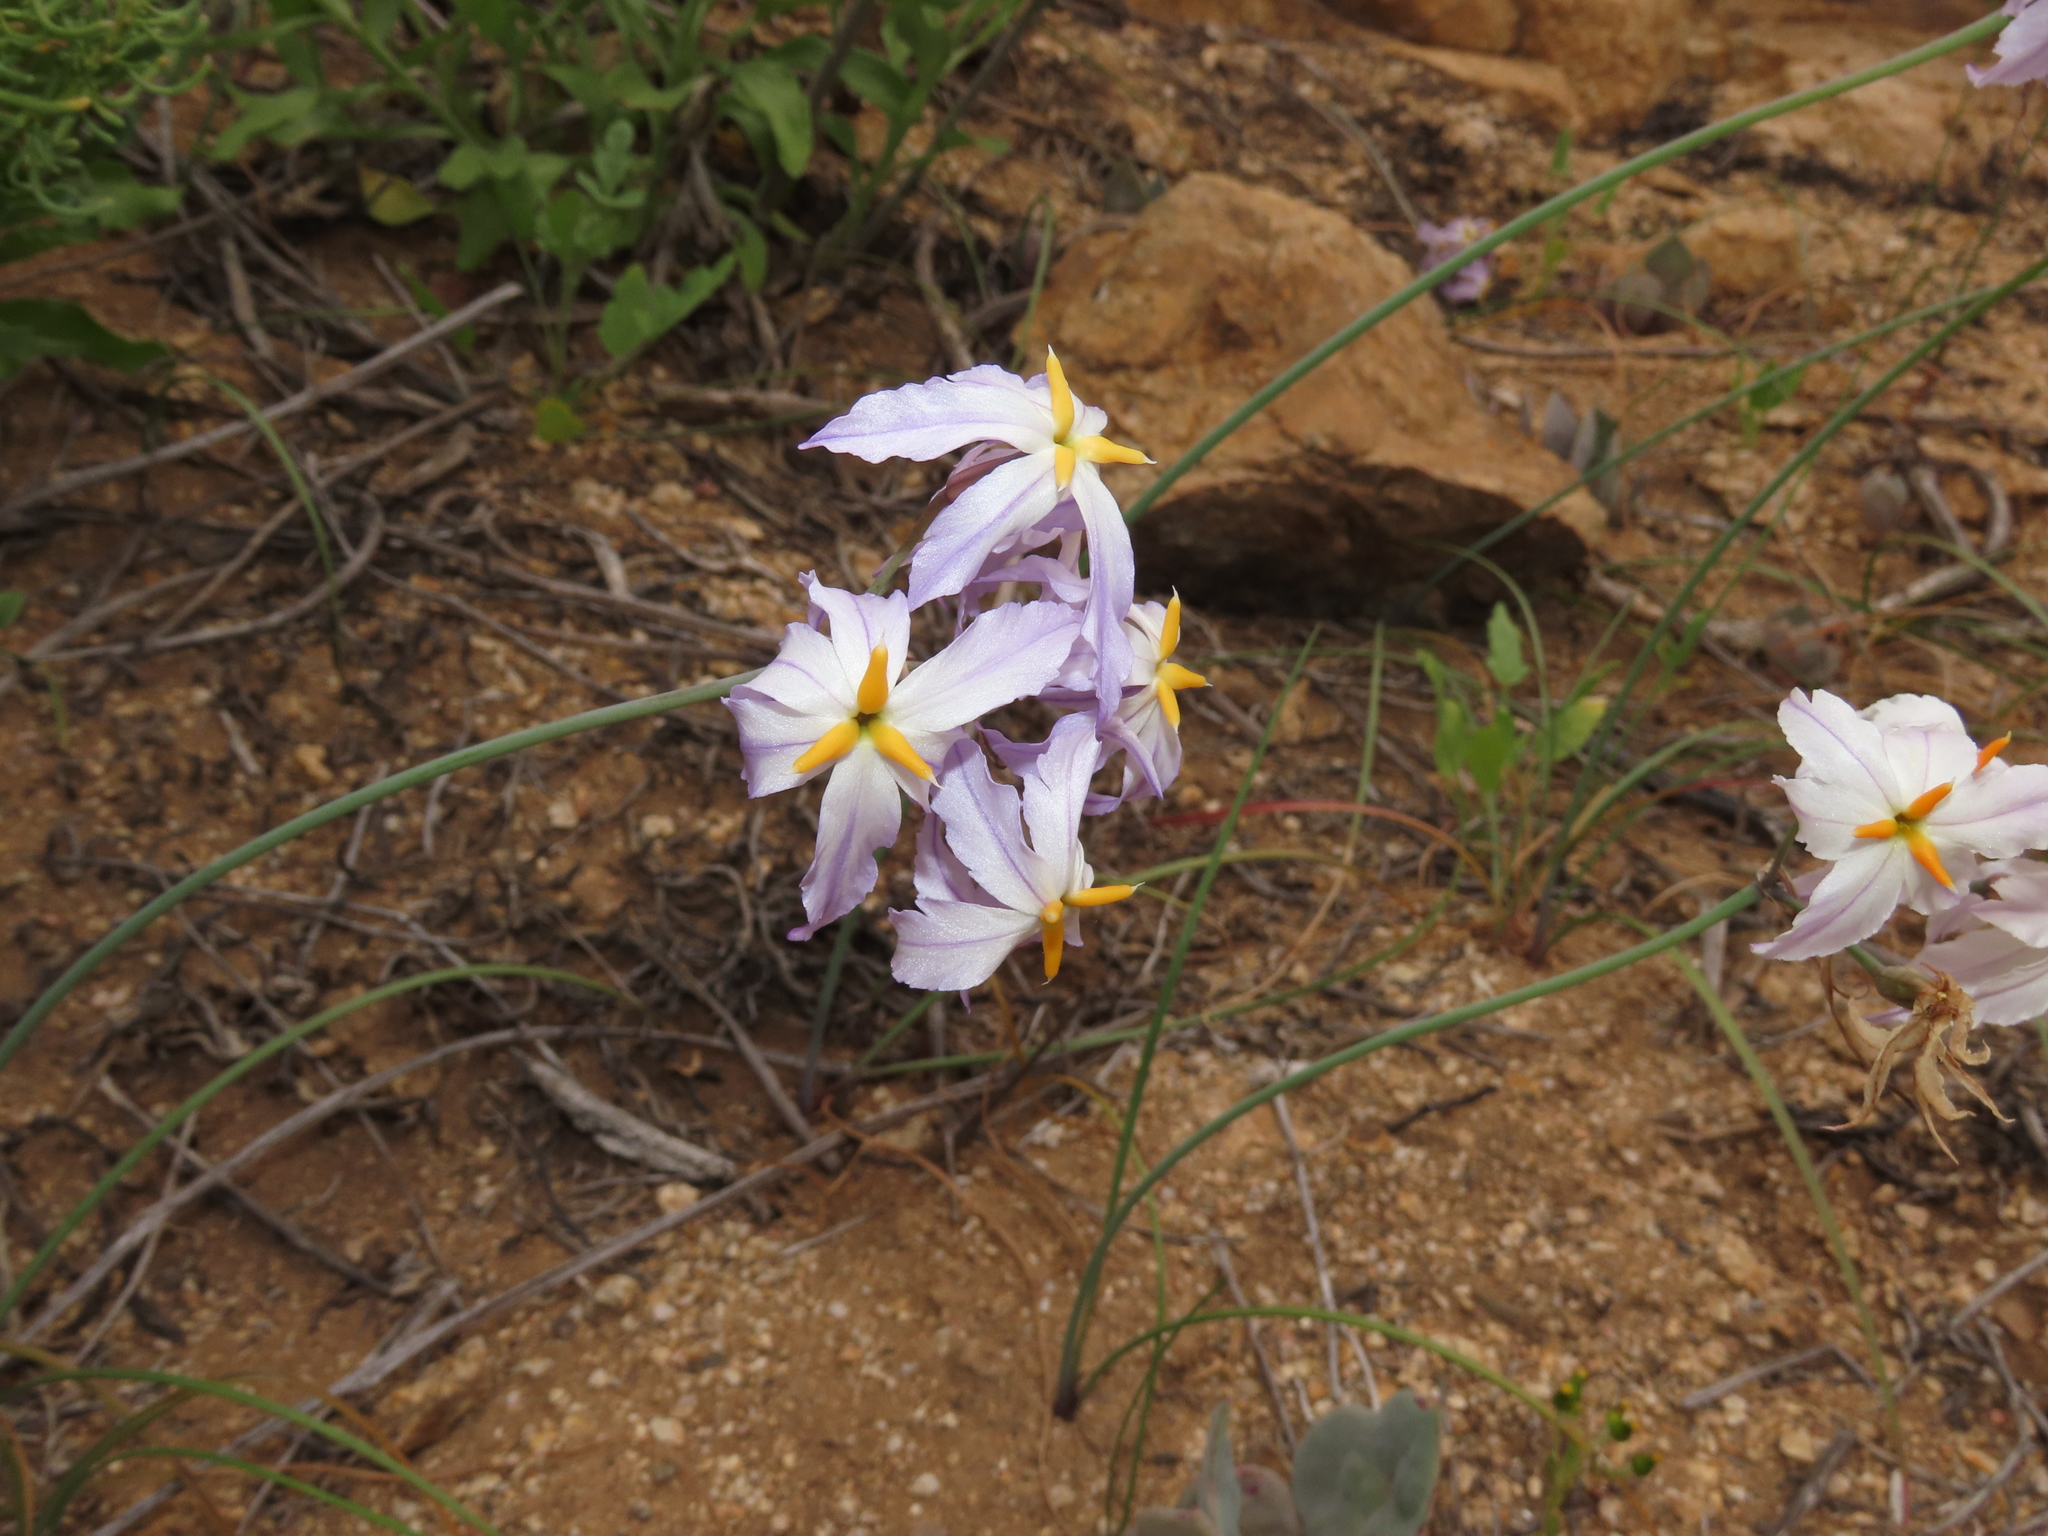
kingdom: Plantae
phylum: Tracheophyta
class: Liliopsida
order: Asparagales
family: Amaryllidaceae
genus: Leucocoryne
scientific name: Leucocoryne appendiculata
